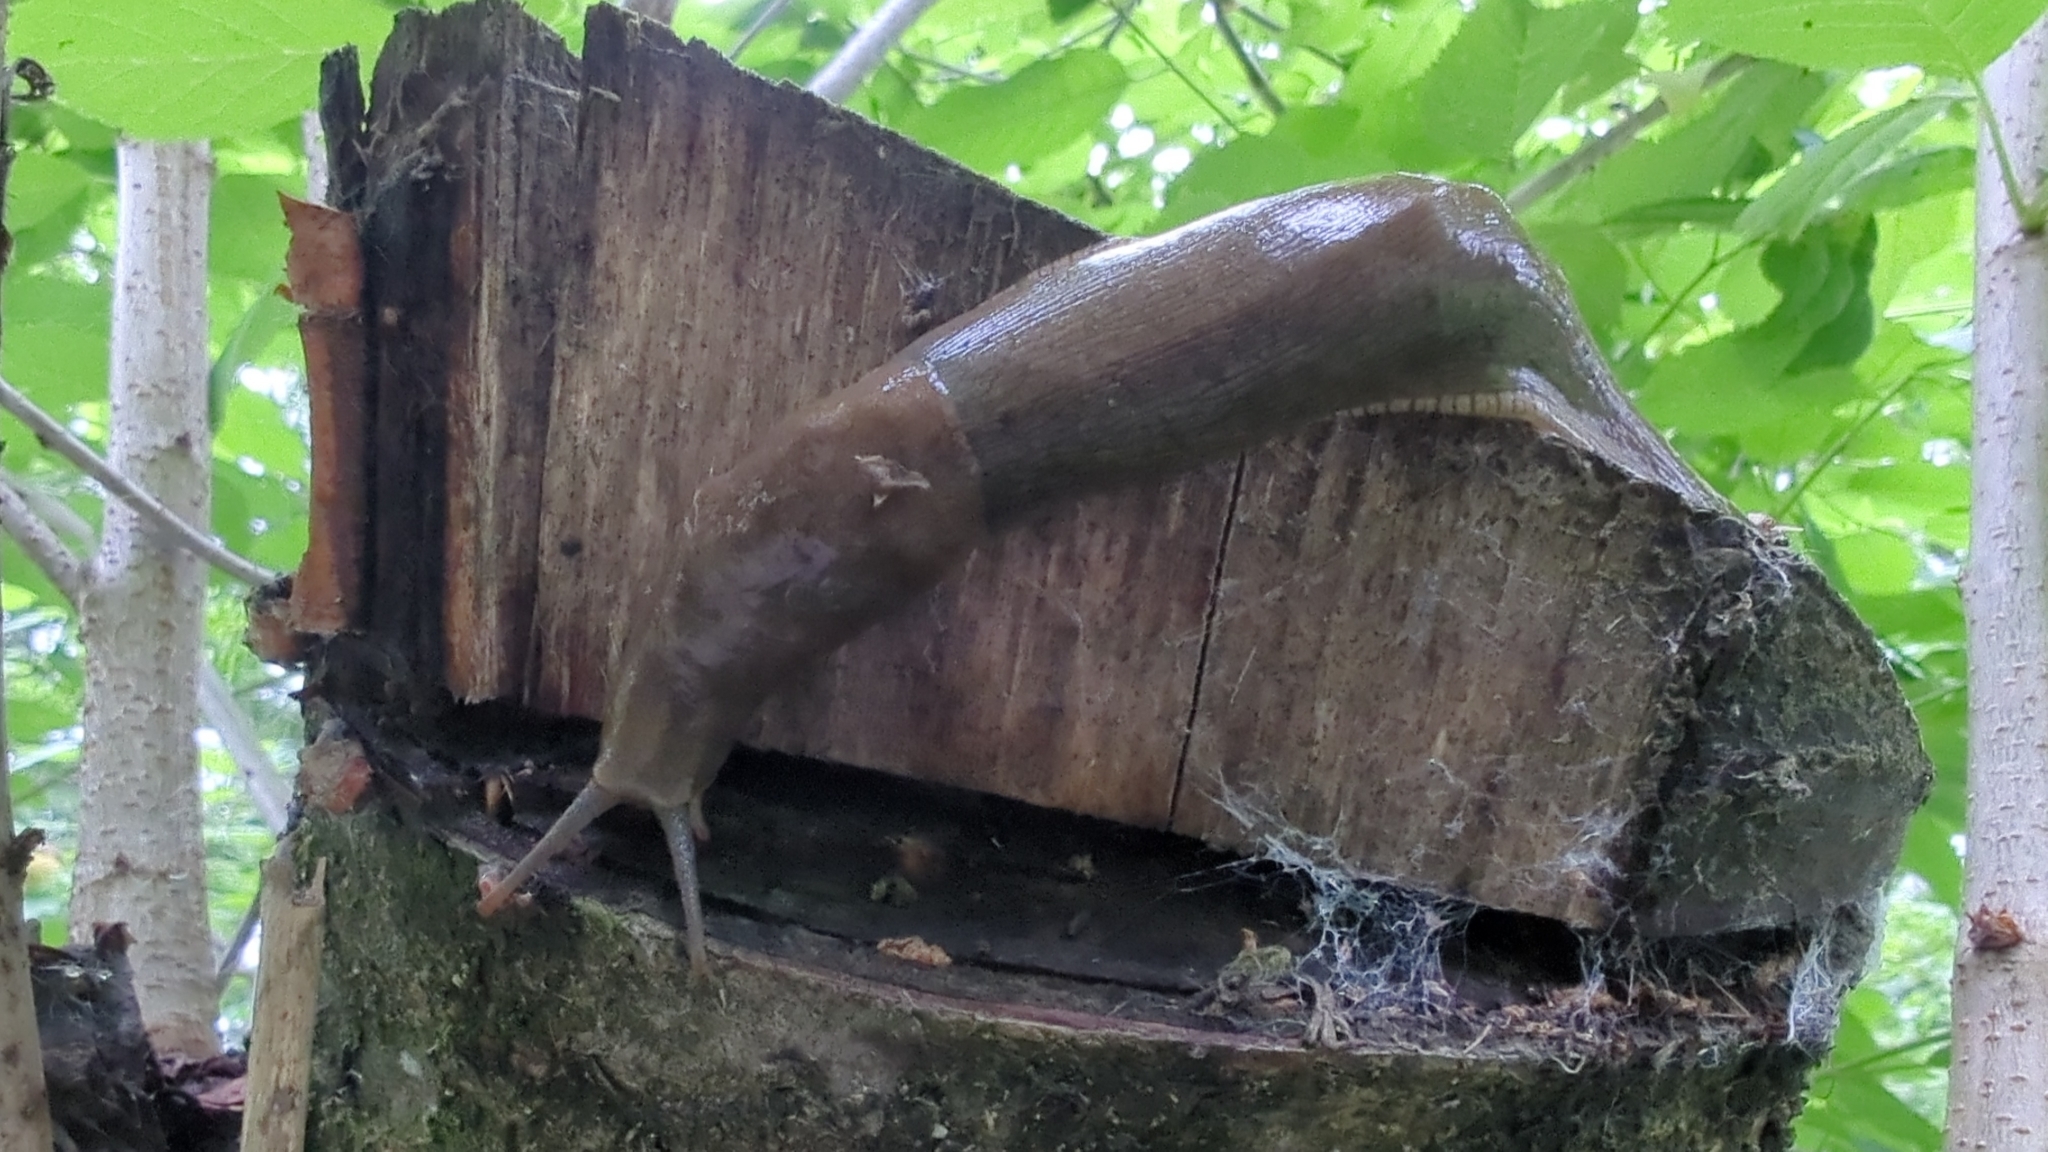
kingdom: Animalia
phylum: Mollusca
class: Gastropoda
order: Stylommatophora
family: Ariolimacidae
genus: Ariolimax
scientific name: Ariolimax columbianus
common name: Pacific banana slug
